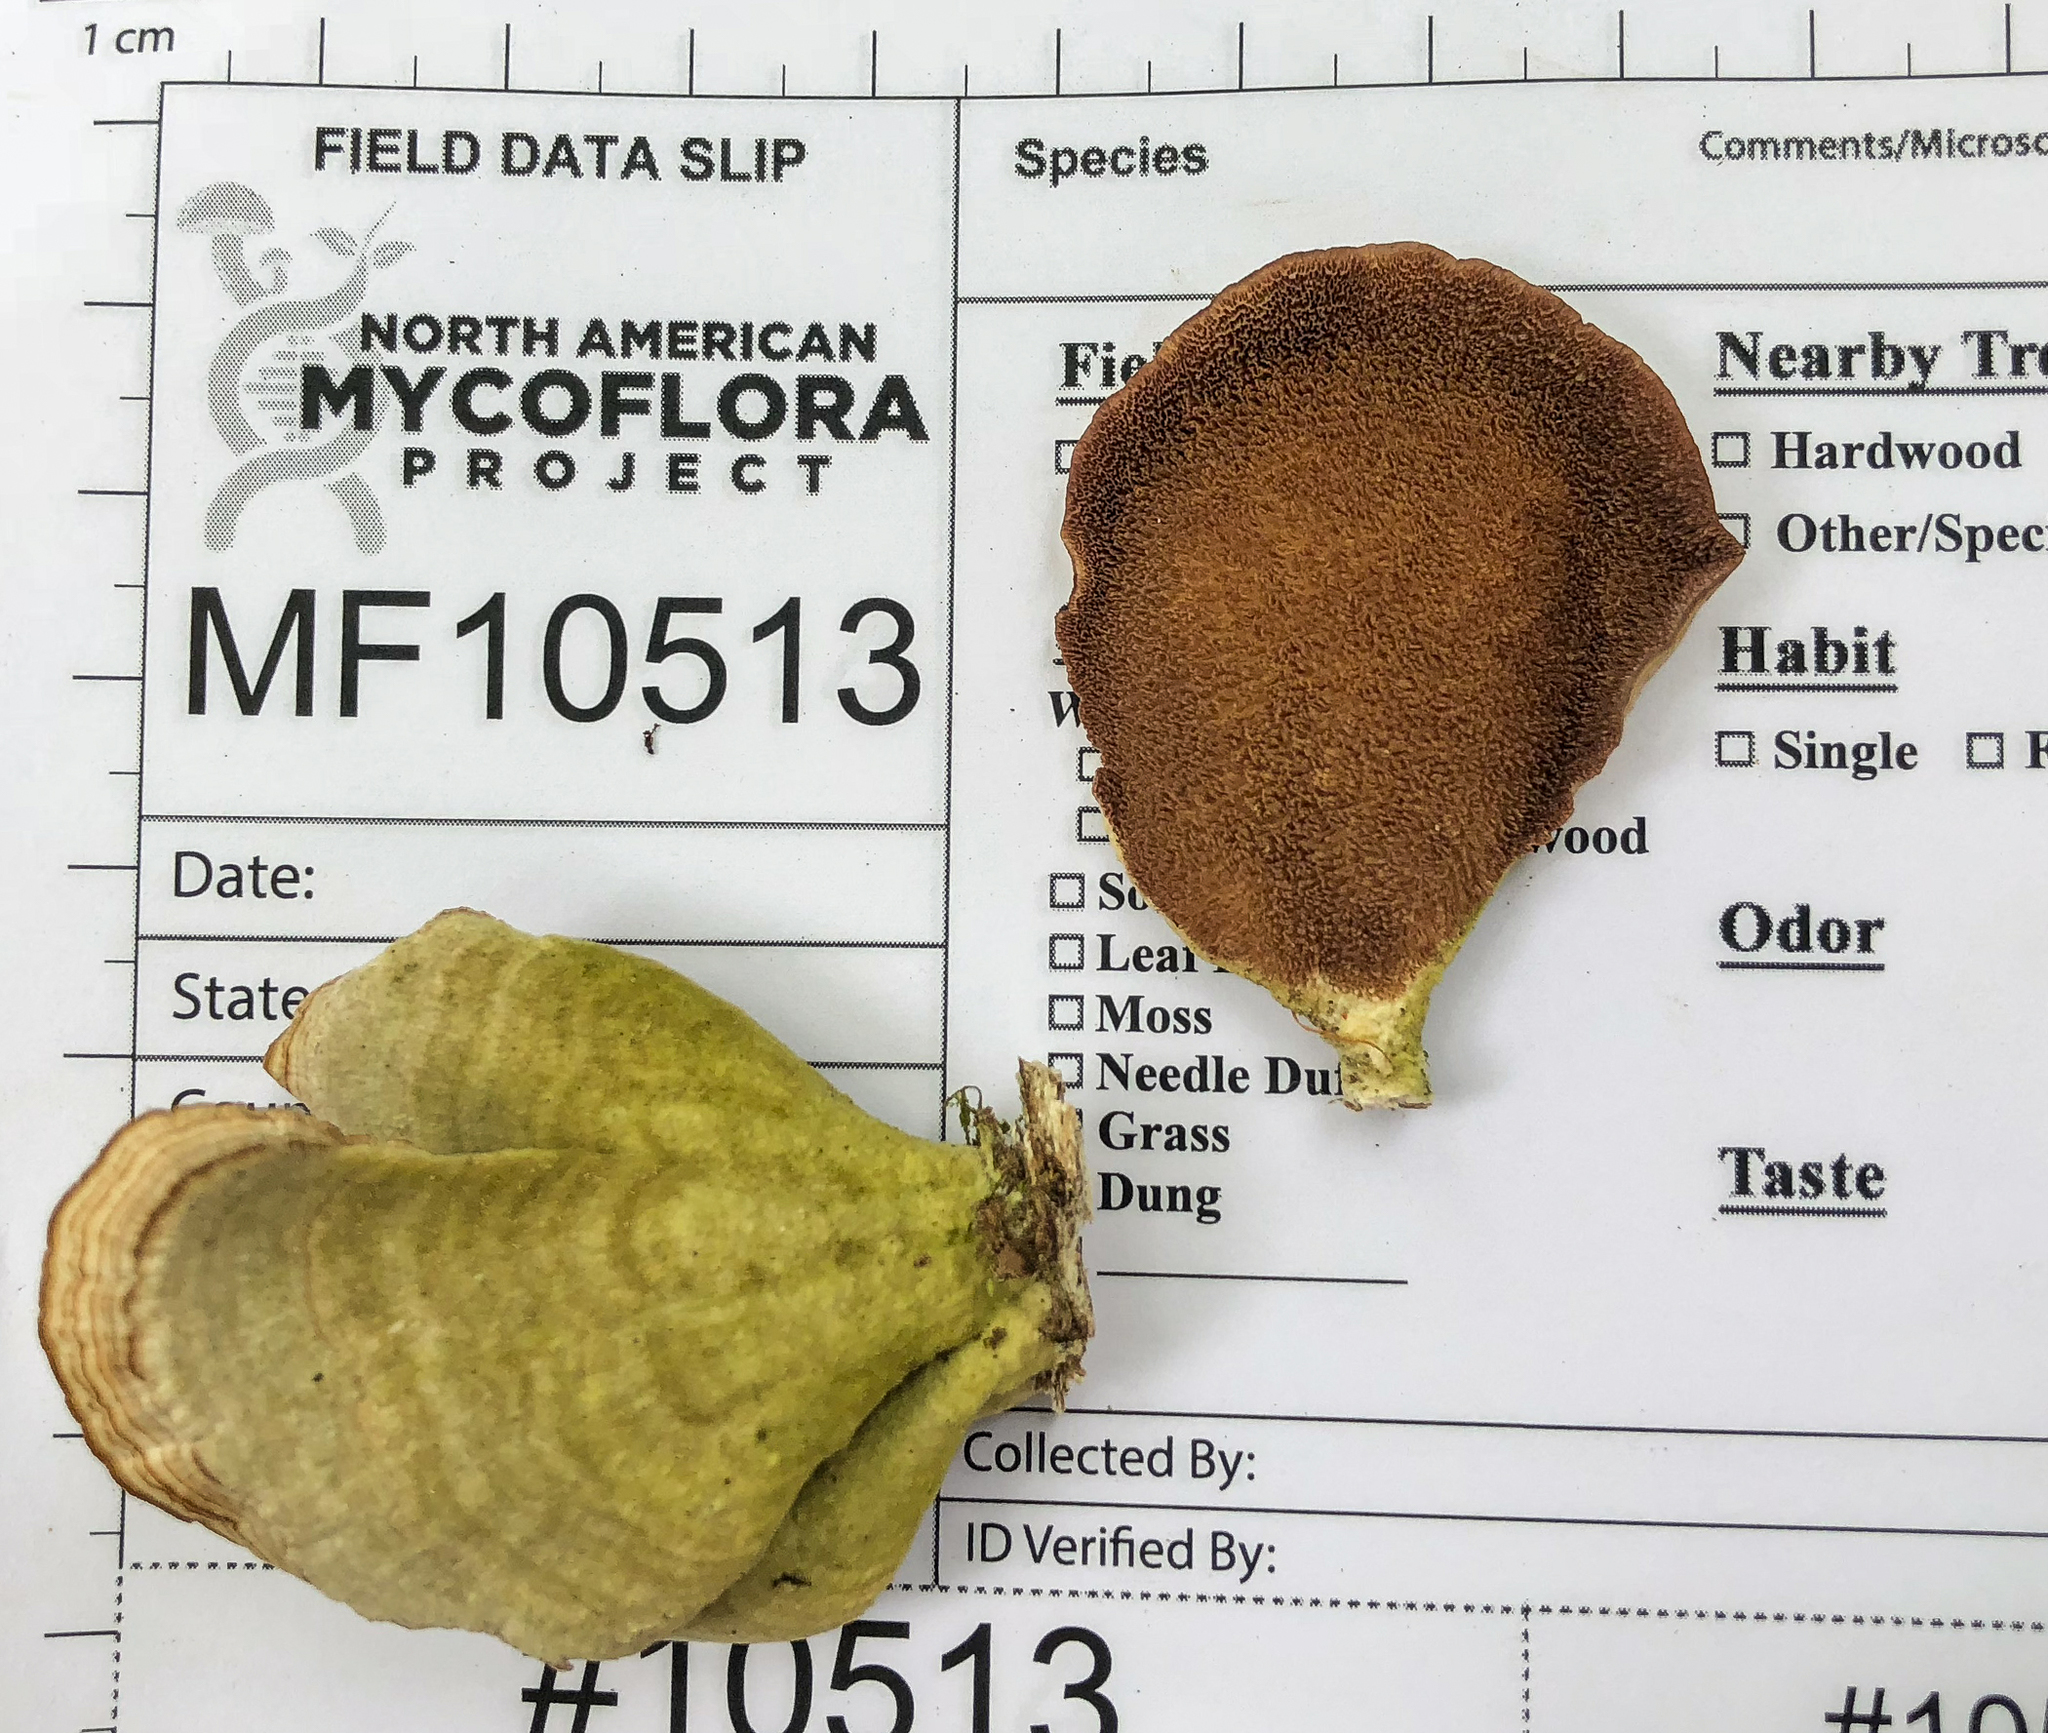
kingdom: Fungi
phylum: Basidiomycota
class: Agaricomycetes
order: Hymenochaetales
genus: Trichaptum
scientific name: Trichaptum biforme
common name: Violet-toothed polypore
